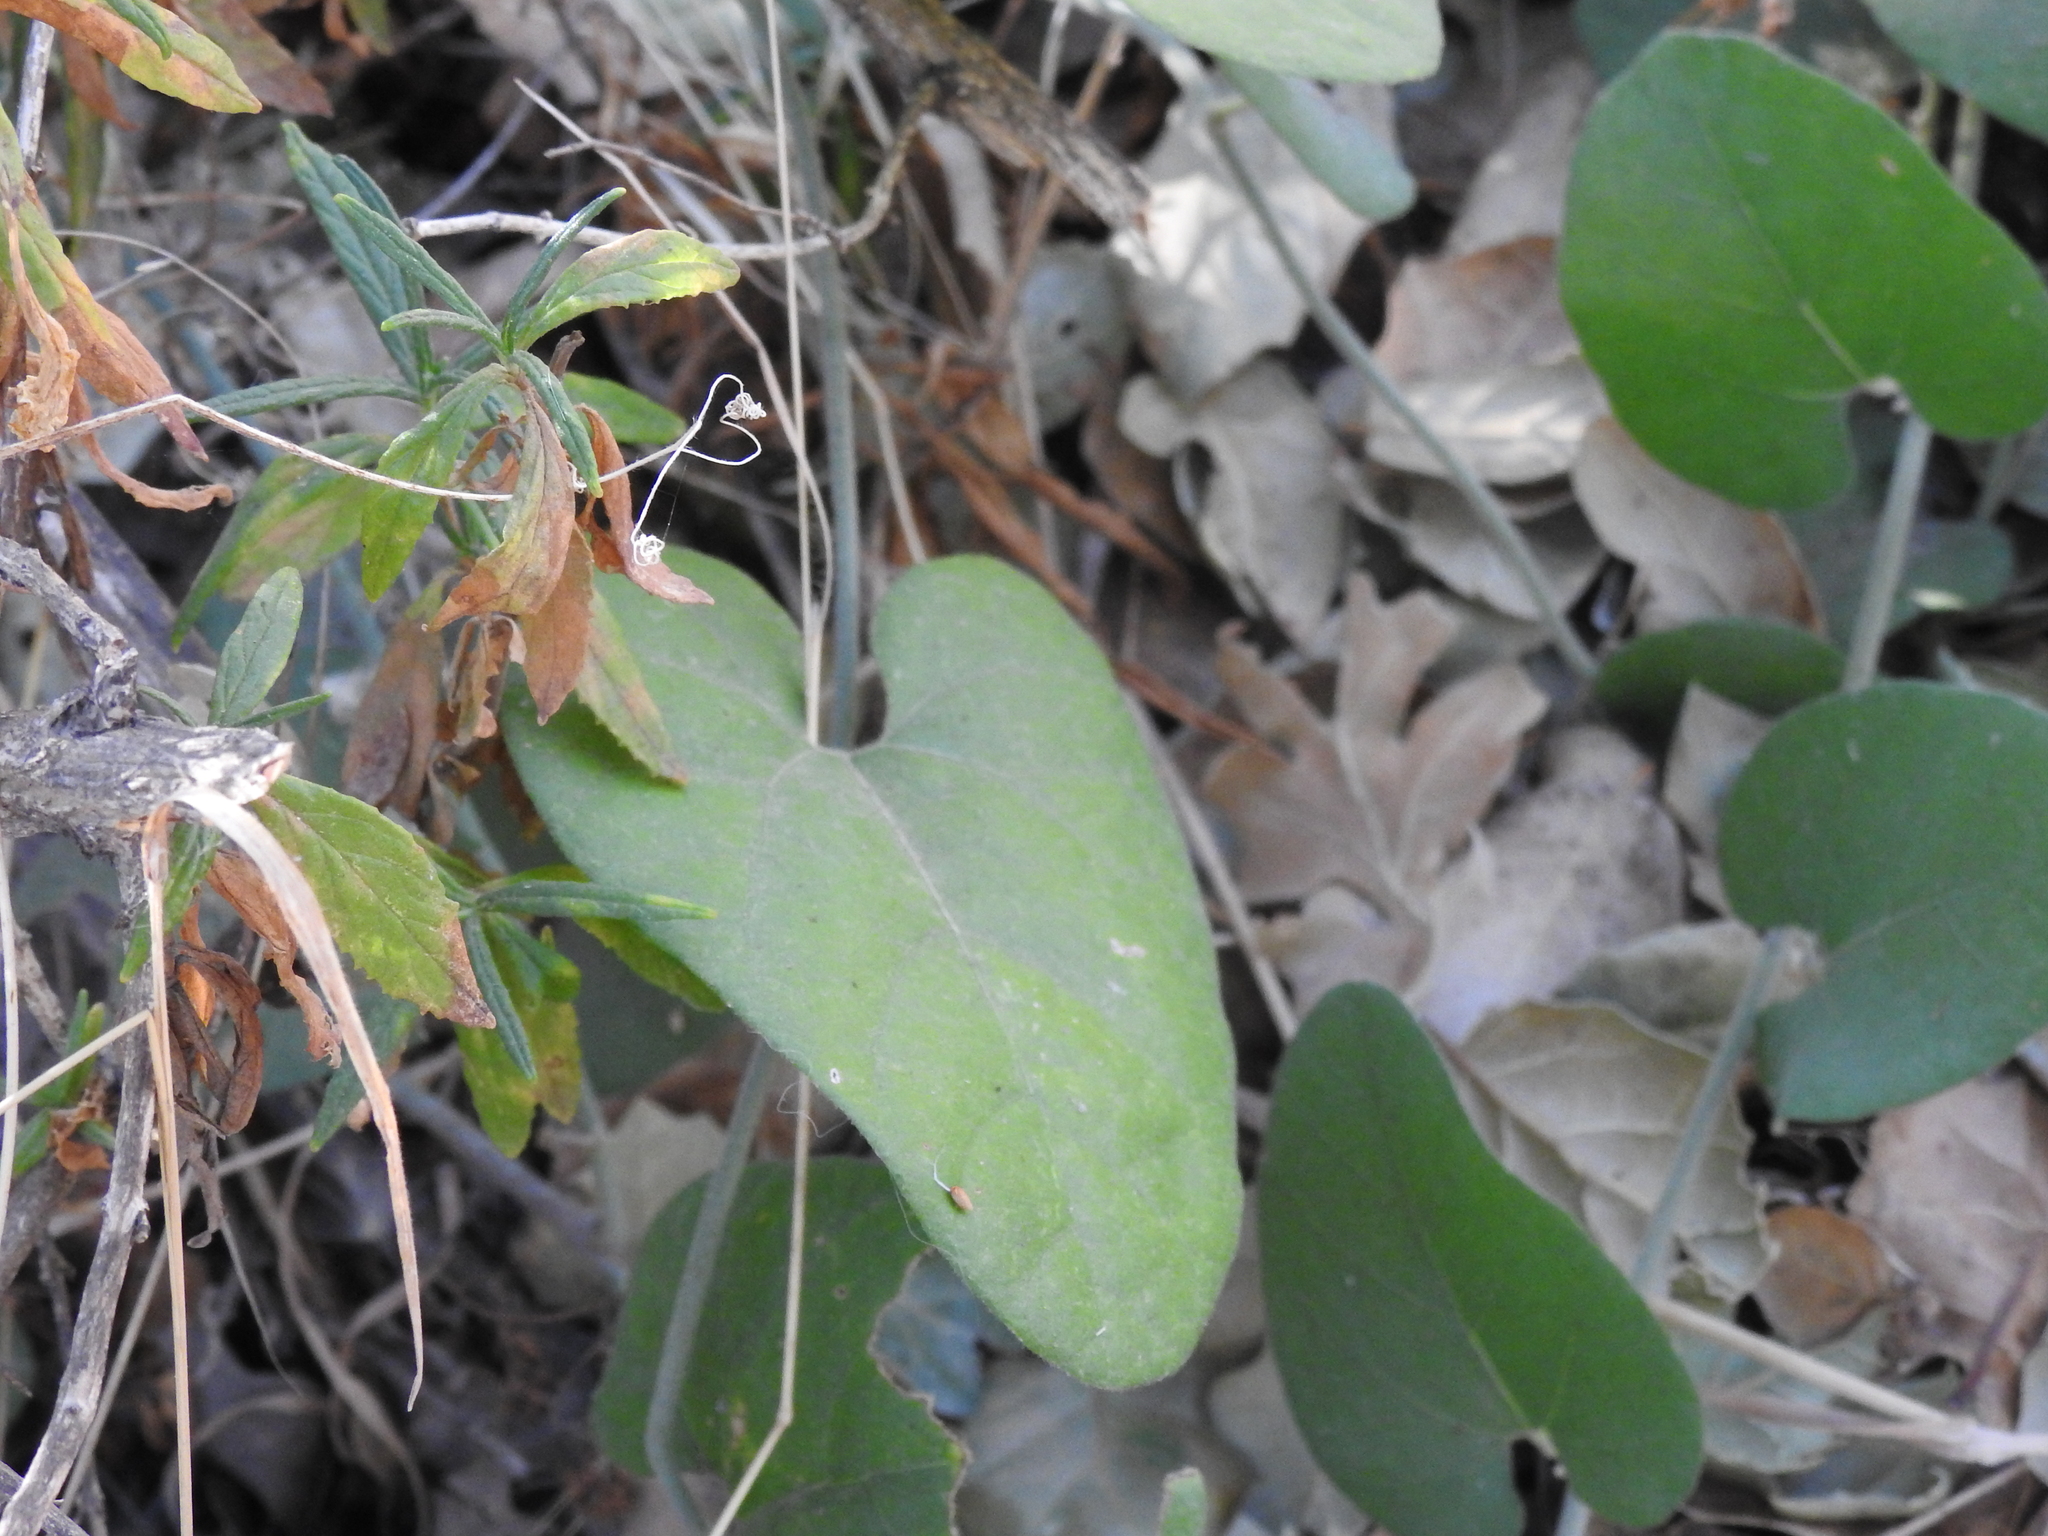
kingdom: Plantae
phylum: Tracheophyta
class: Magnoliopsida
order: Piperales
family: Aristolochiaceae
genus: Isotrema
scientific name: Isotrema californicum
